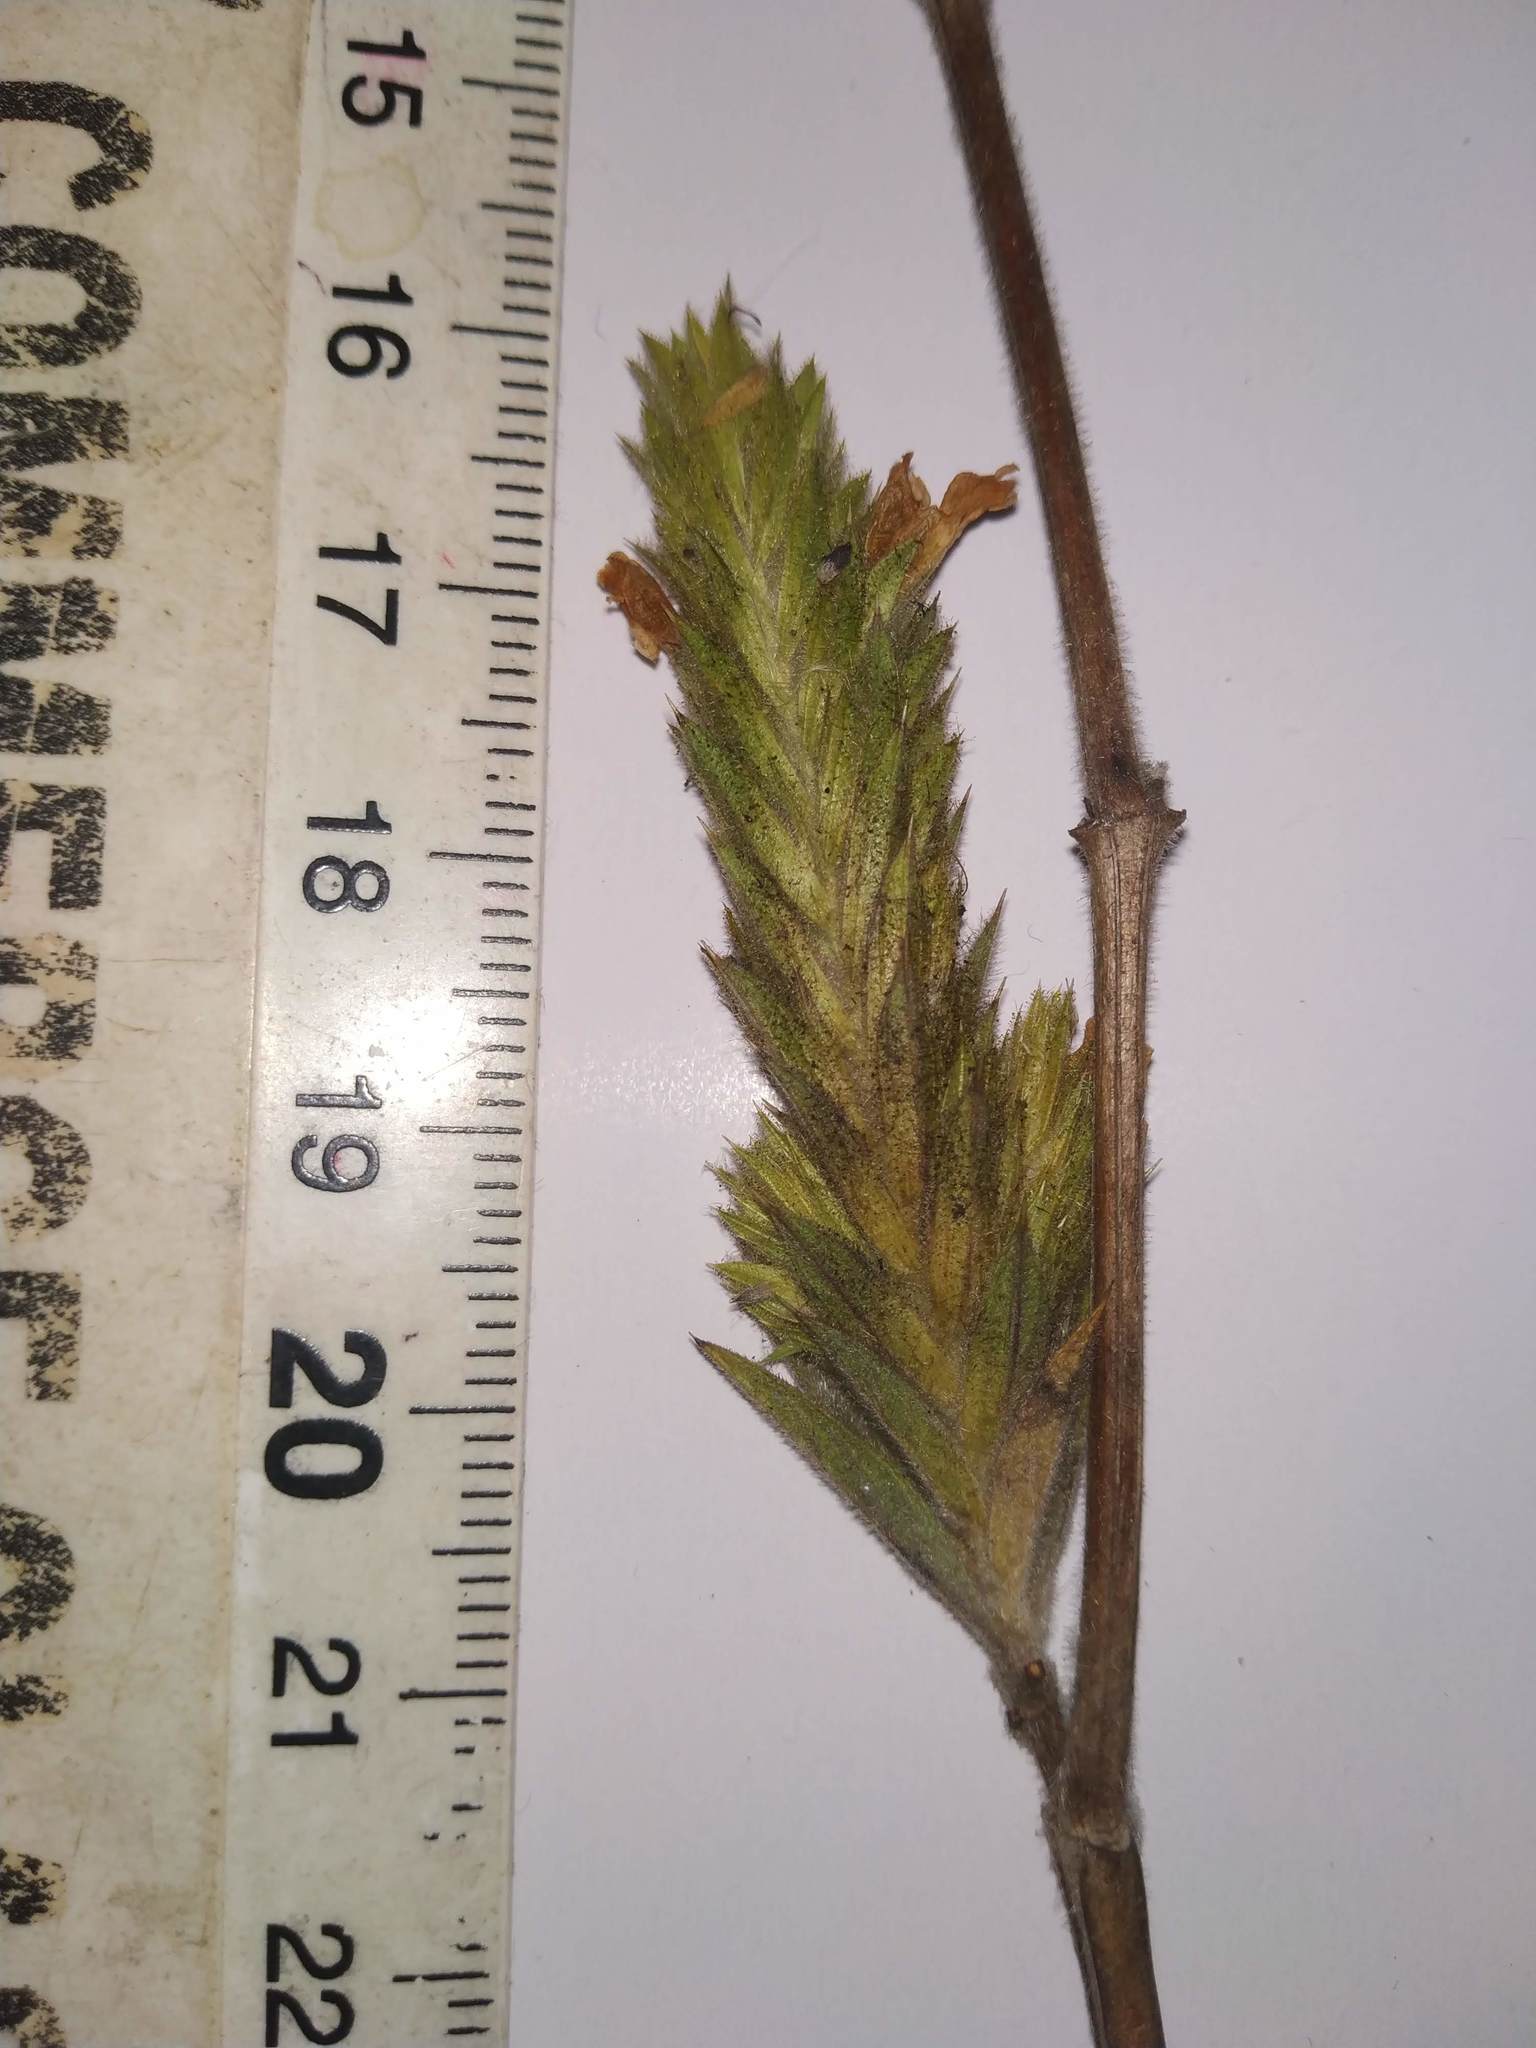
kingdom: Plantae
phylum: Tracheophyta
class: Magnoliopsida
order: Lamiales
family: Acanthaceae
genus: Lepidagathis
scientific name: Lepidagathis rigida
